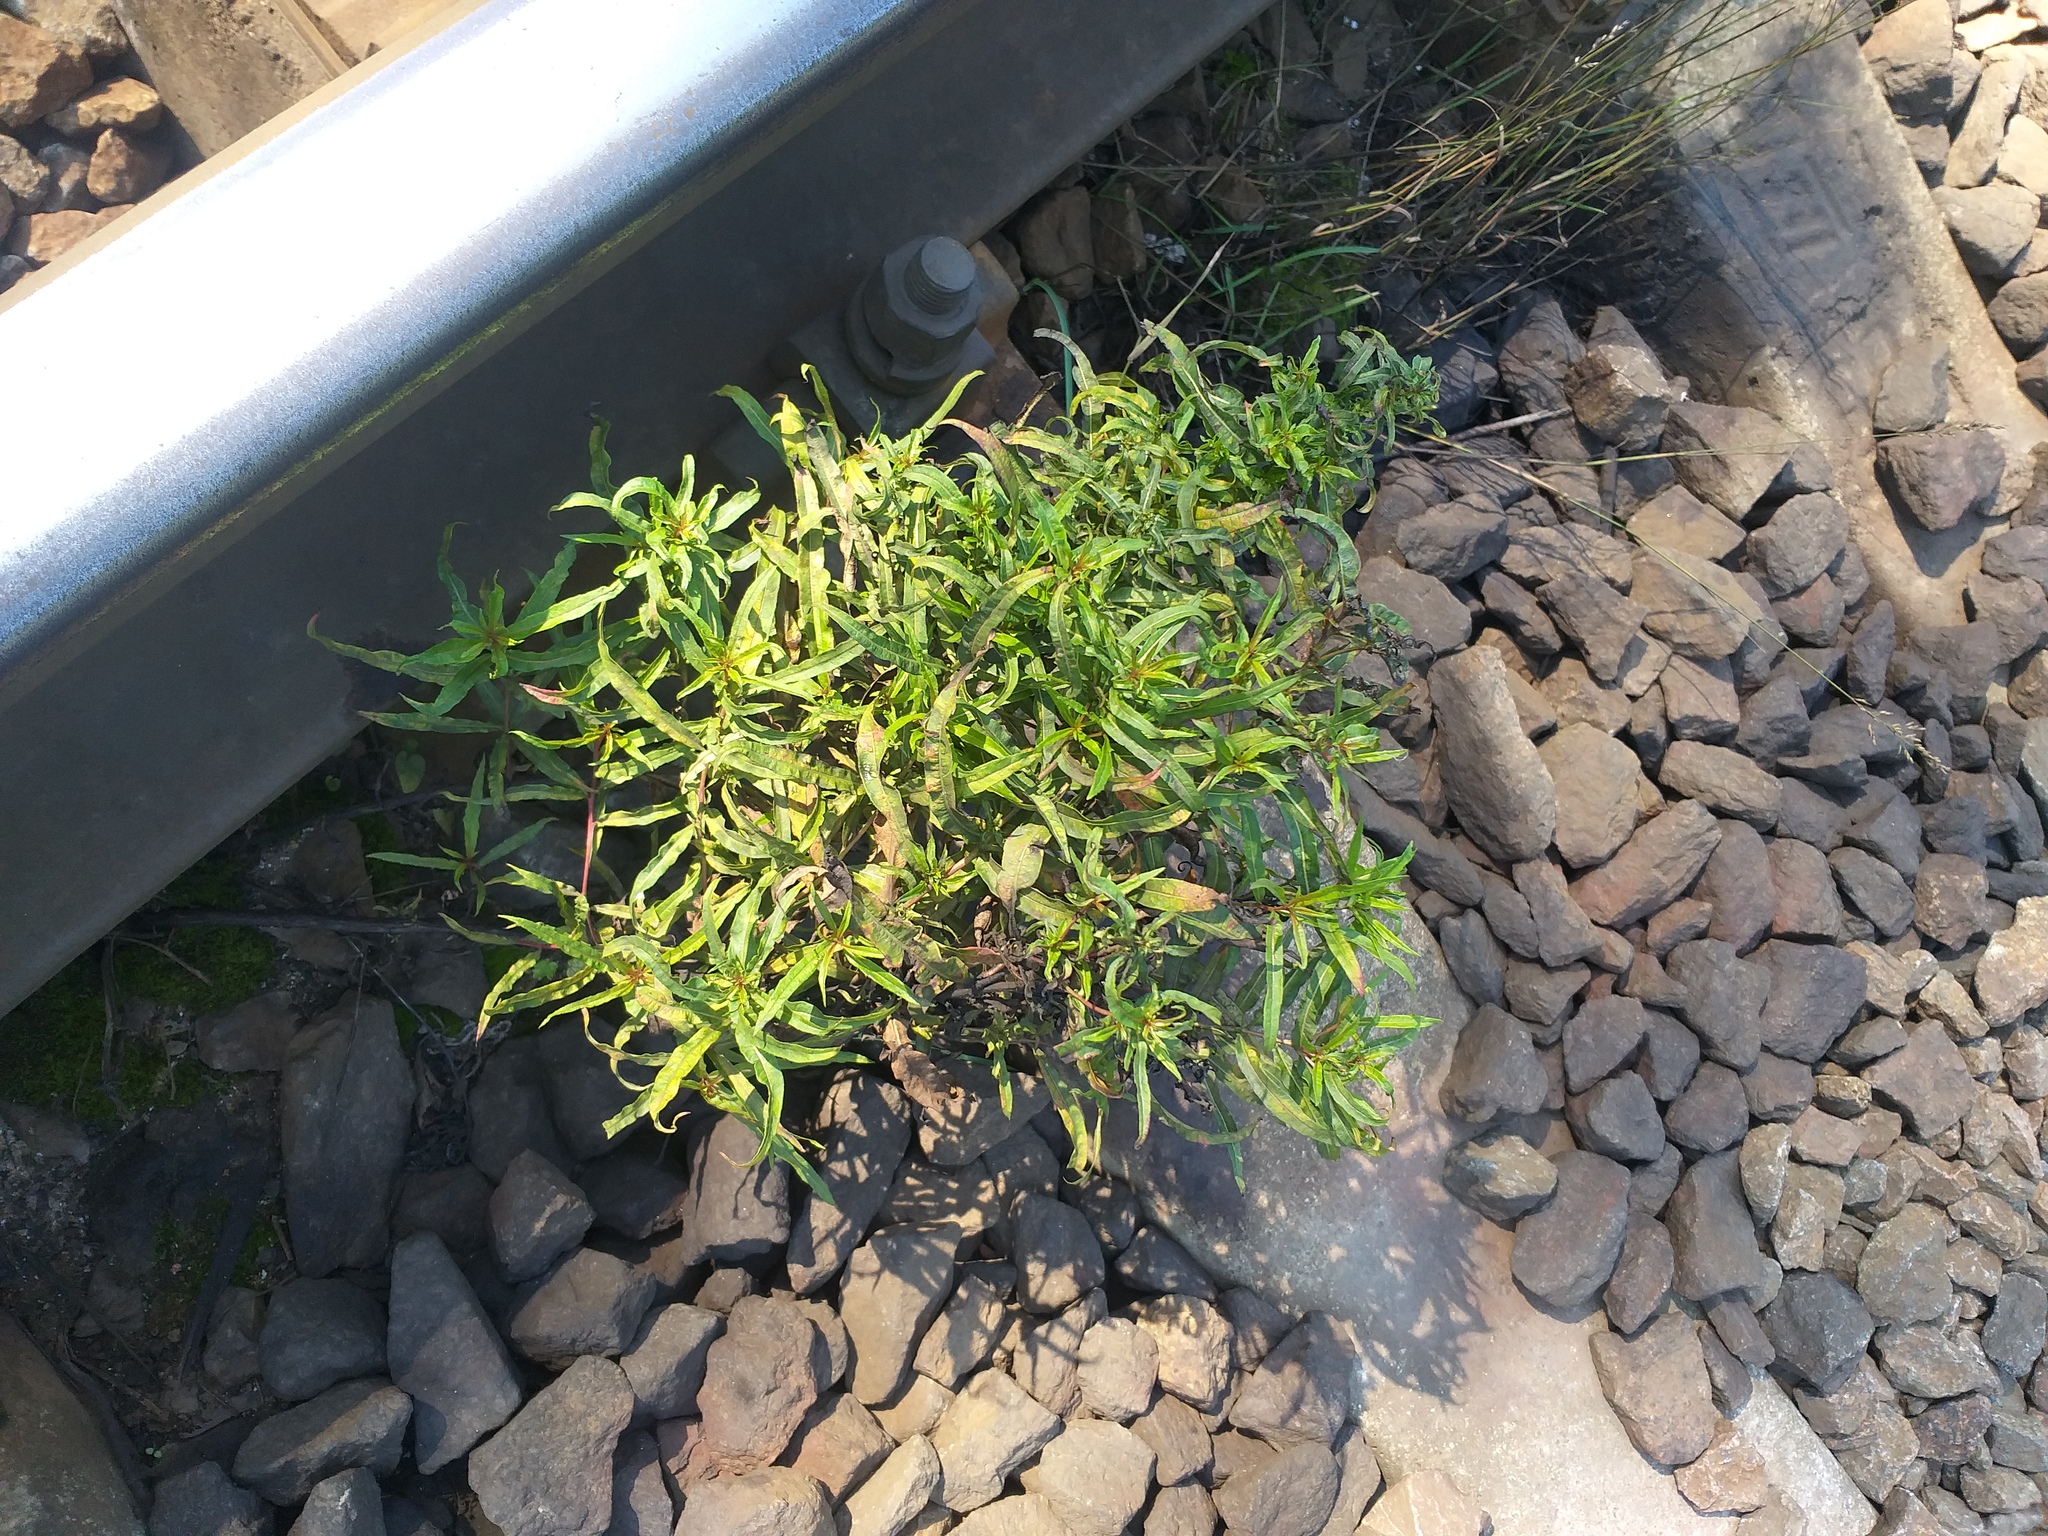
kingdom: Plantae
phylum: Tracheophyta
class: Magnoliopsida
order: Myrtales
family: Onagraceae
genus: Chamaenerion
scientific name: Chamaenerion angustifolium
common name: Fireweed
